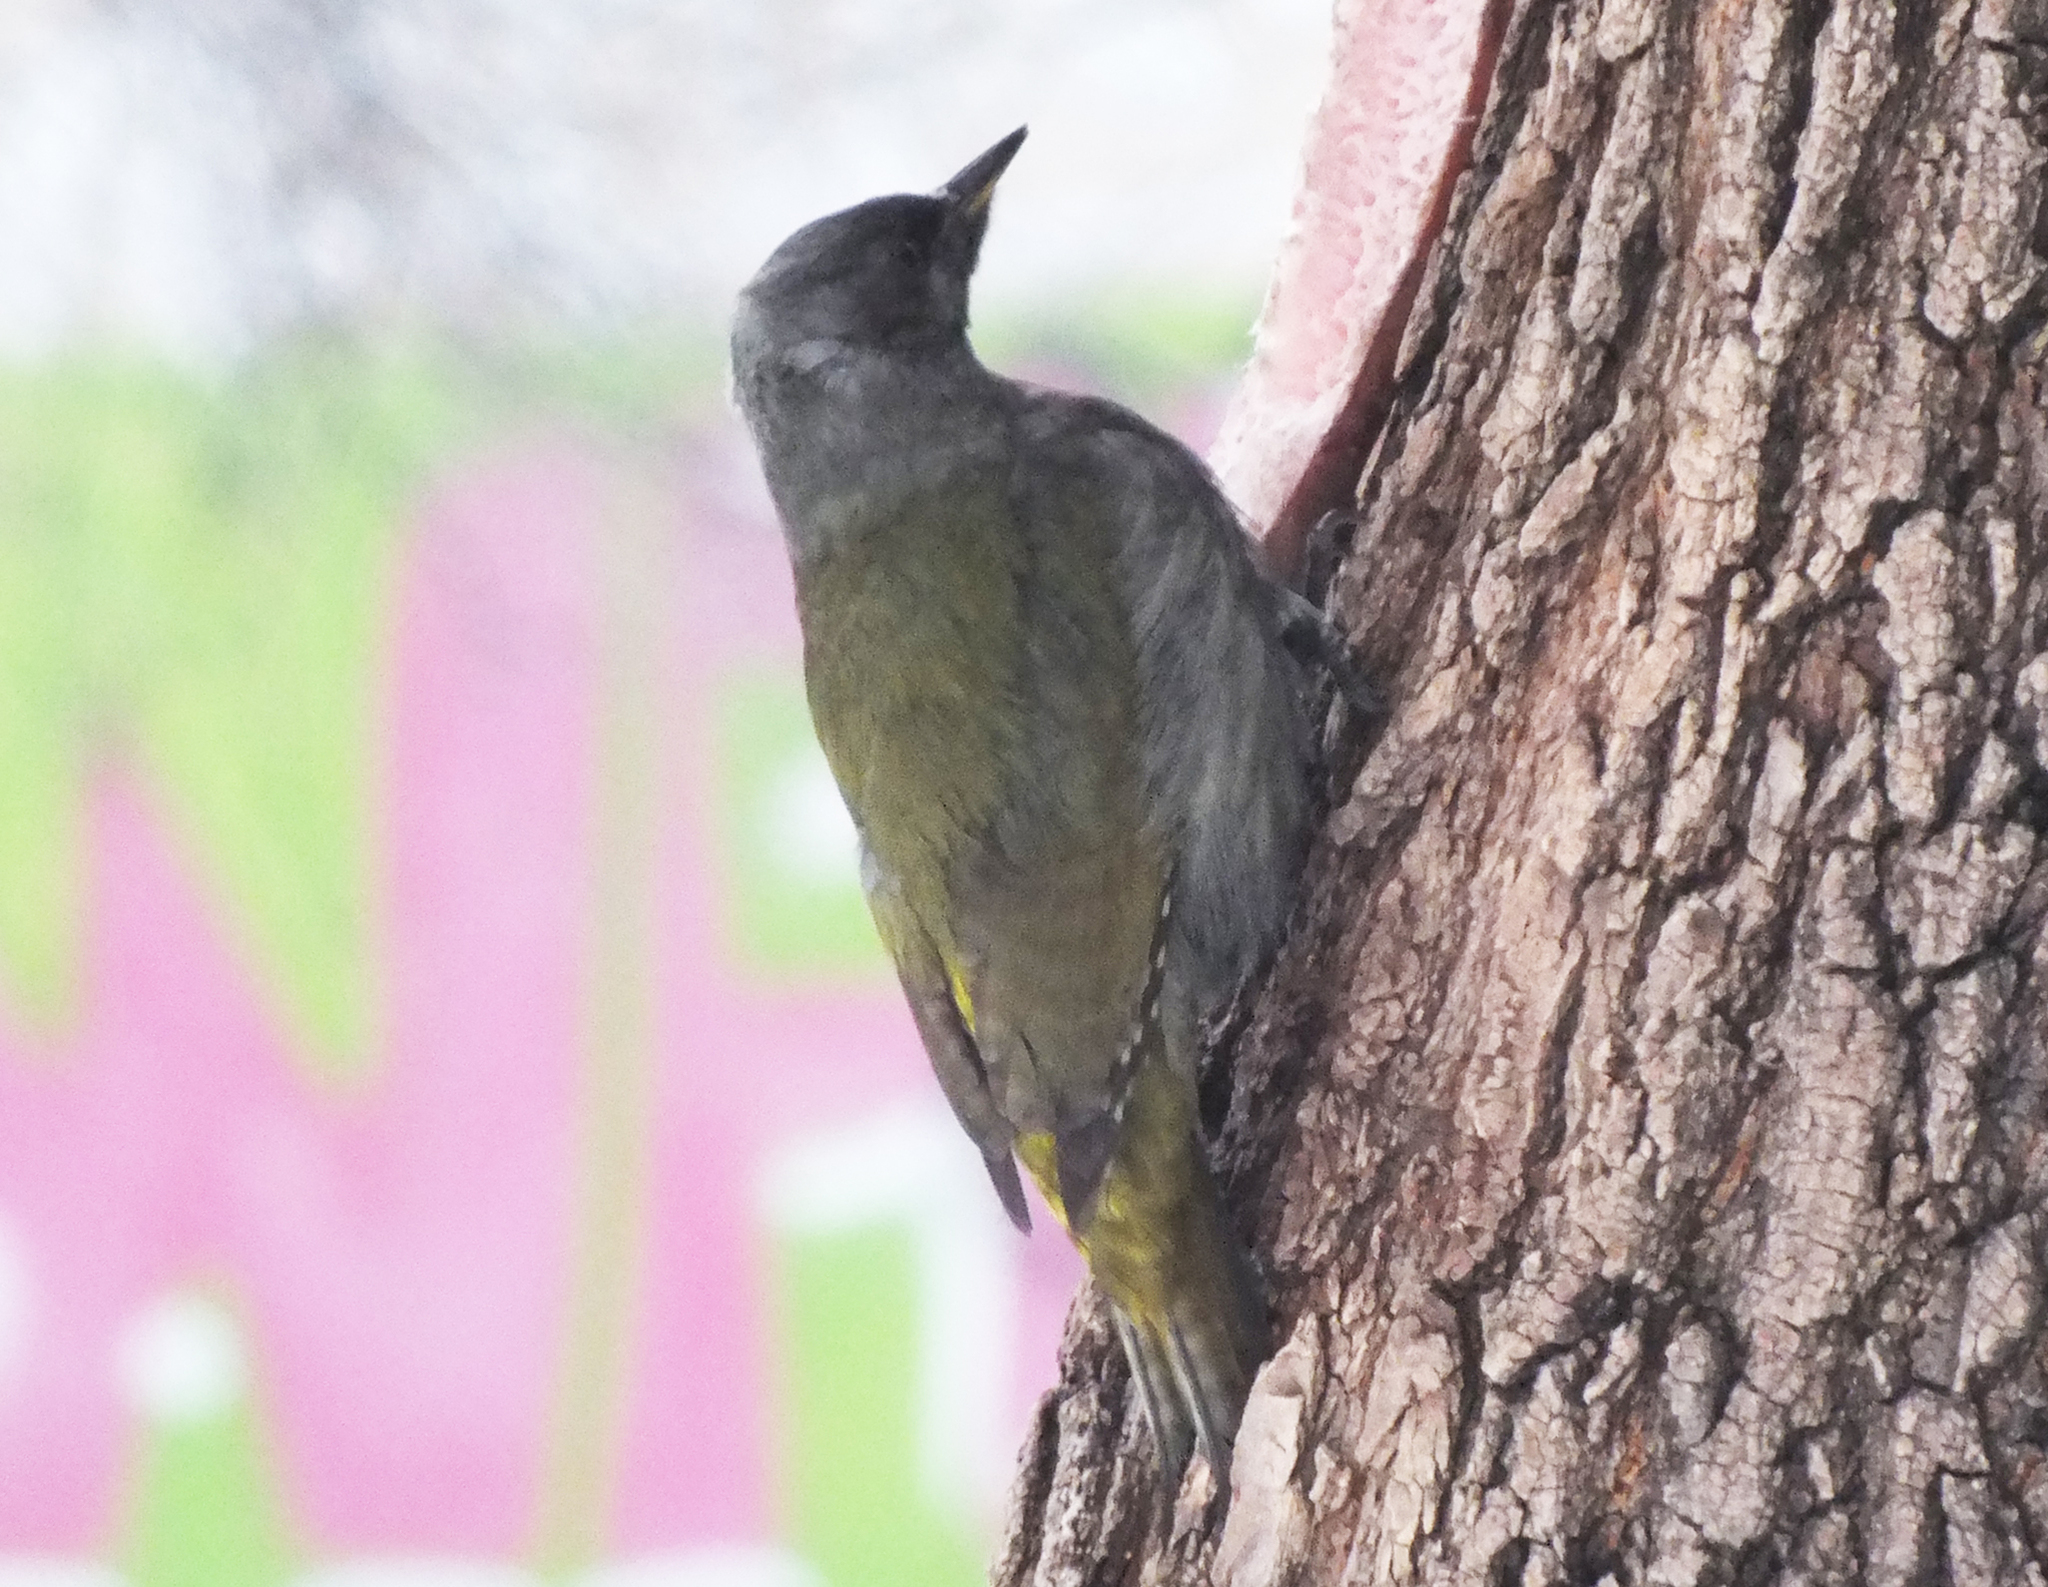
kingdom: Animalia
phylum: Chordata
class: Aves
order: Piciformes
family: Picidae
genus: Picus
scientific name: Picus canus
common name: Grey-headed woodpecker
